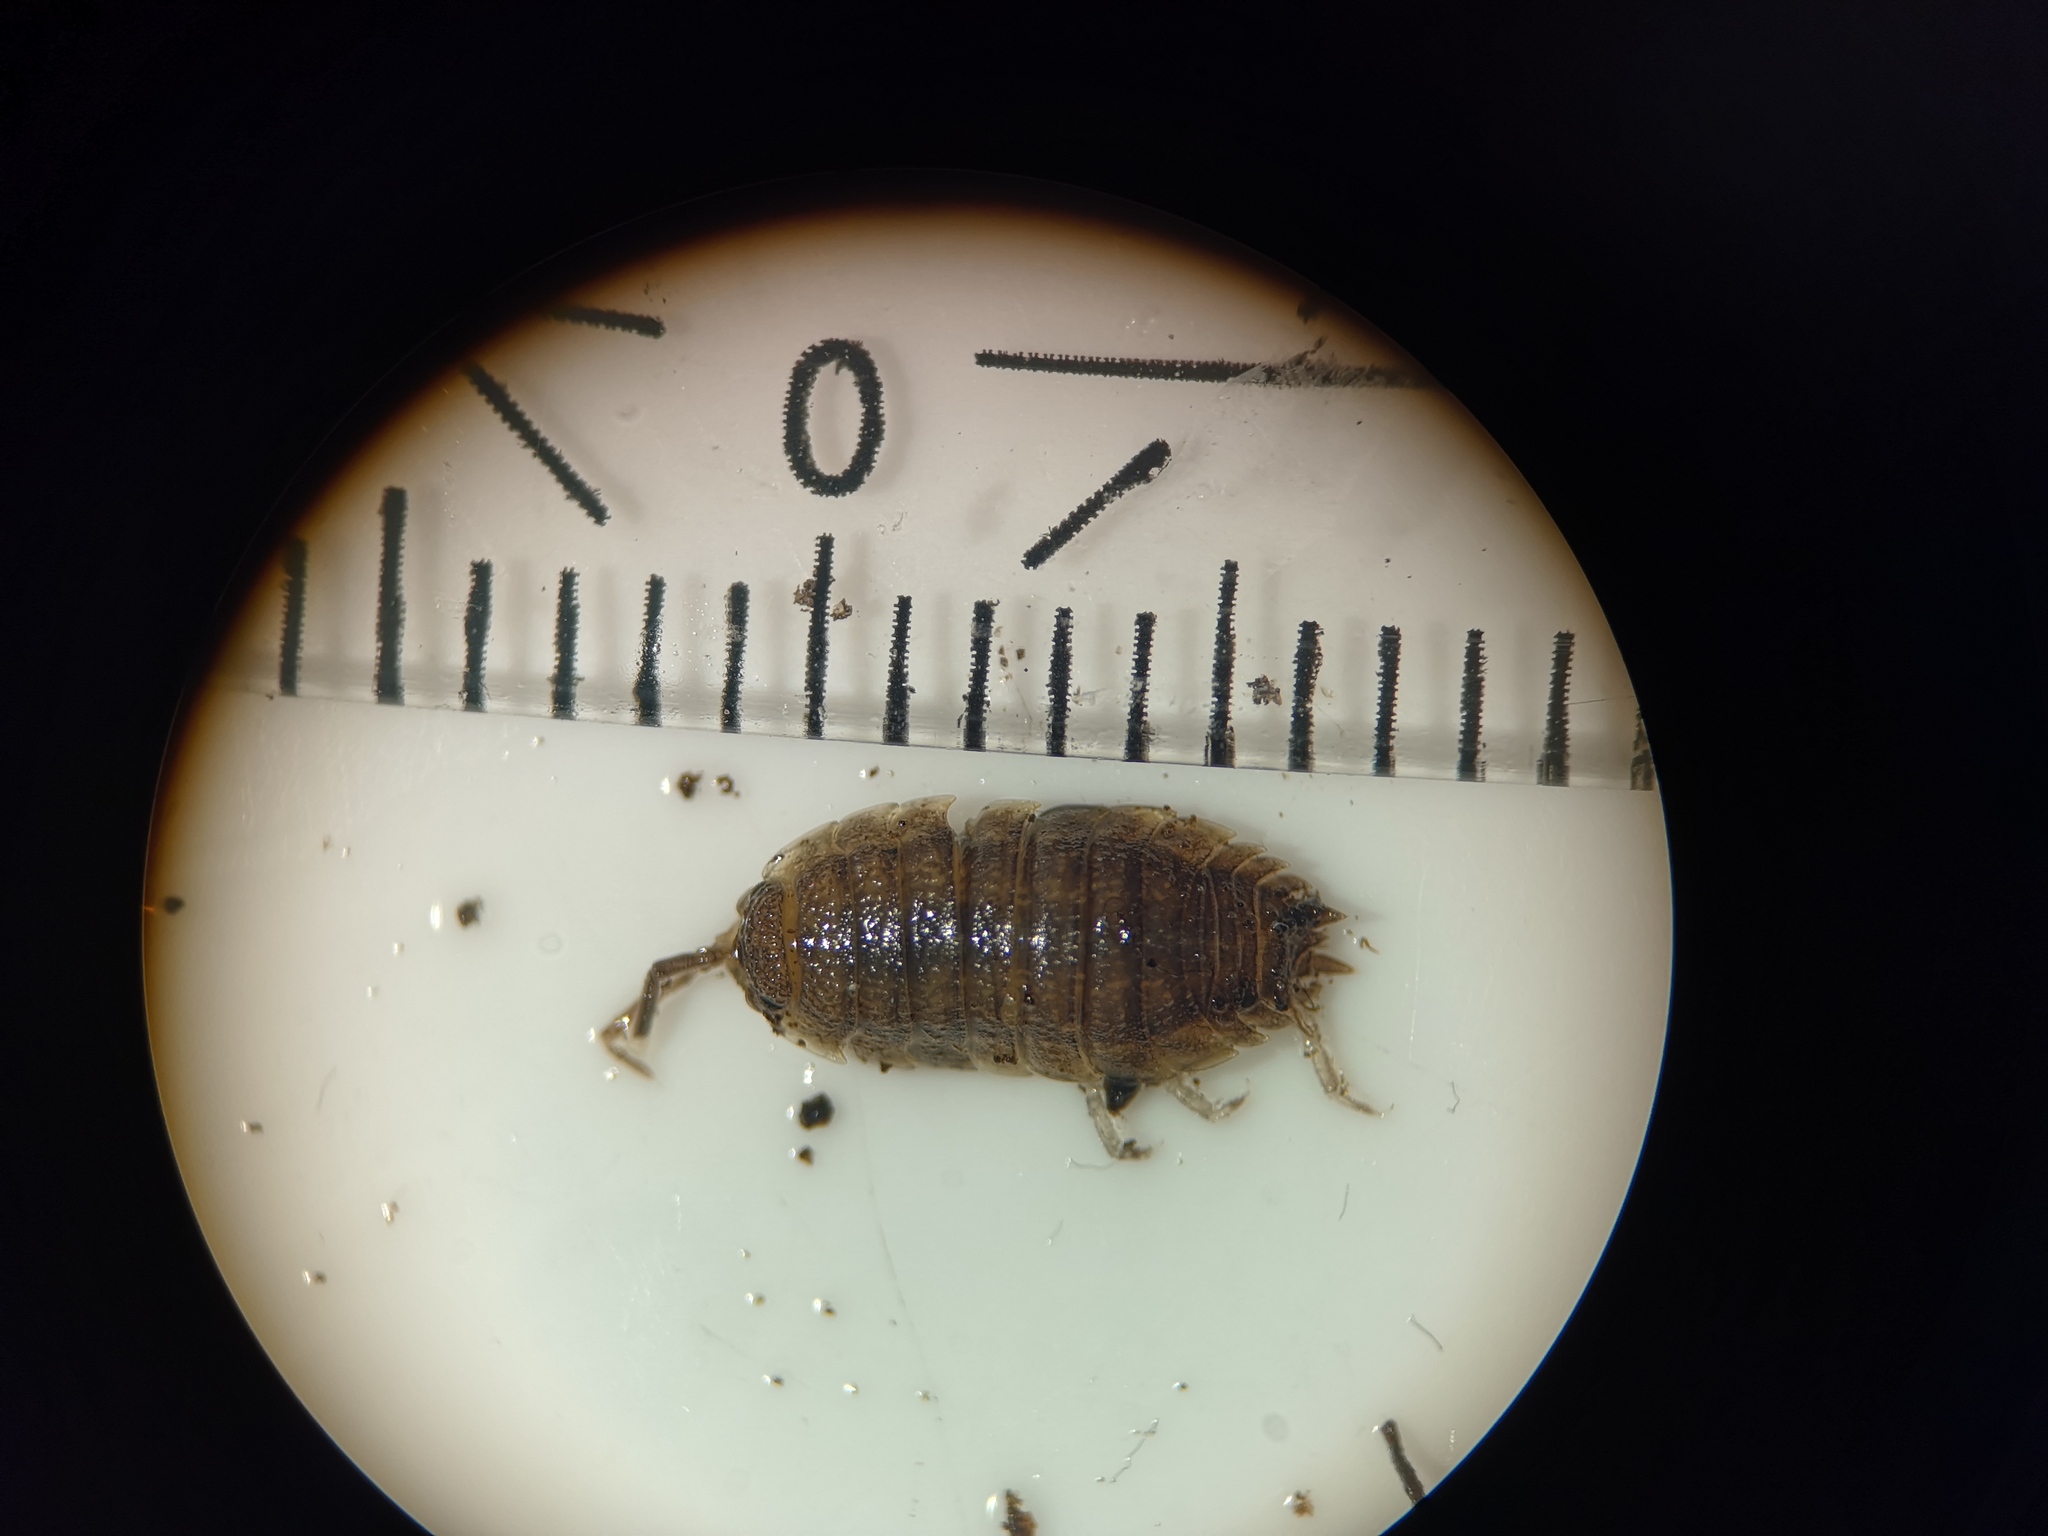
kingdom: Animalia
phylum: Arthropoda
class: Malacostraca
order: Isopoda
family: Porcellionidae
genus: Porcellio
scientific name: Porcellio scaber
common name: Common rough woodlouse
